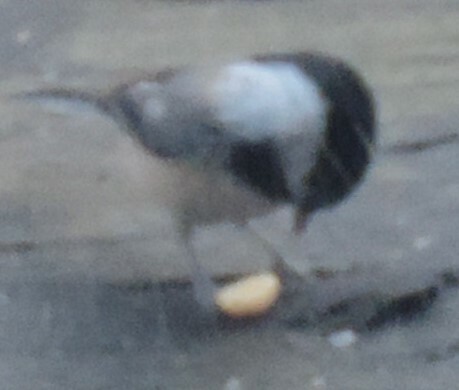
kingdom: Animalia
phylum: Chordata
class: Aves
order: Passeriformes
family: Paridae
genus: Poecile
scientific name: Poecile atricapillus
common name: Black-capped chickadee
